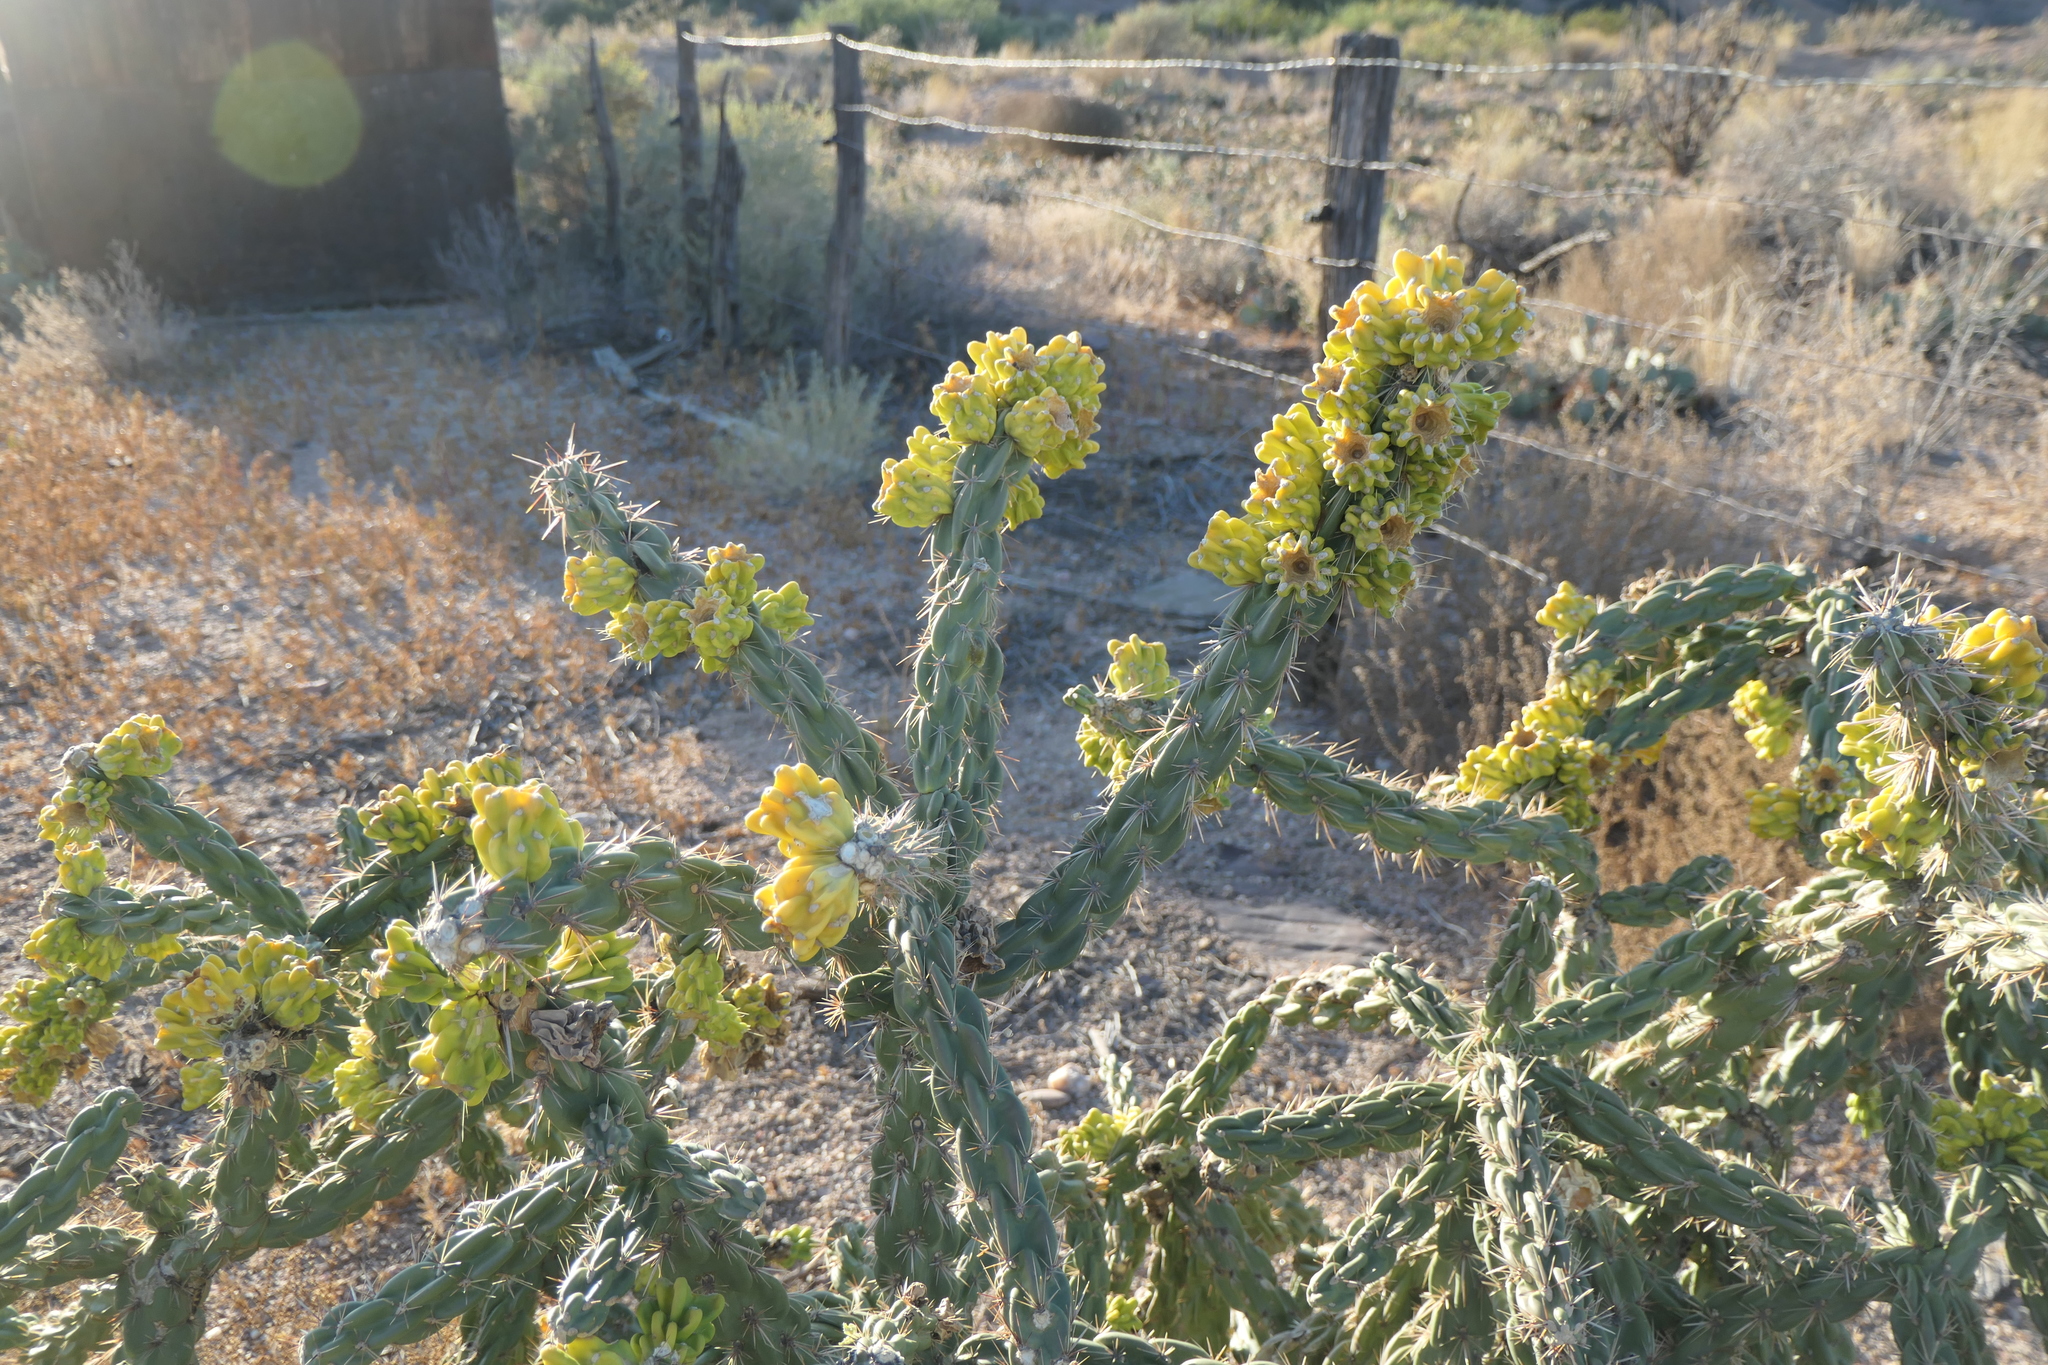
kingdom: Plantae
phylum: Tracheophyta
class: Magnoliopsida
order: Caryophyllales
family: Cactaceae
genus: Cylindropuntia
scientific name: Cylindropuntia imbricata
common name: Candelabrum cactus
